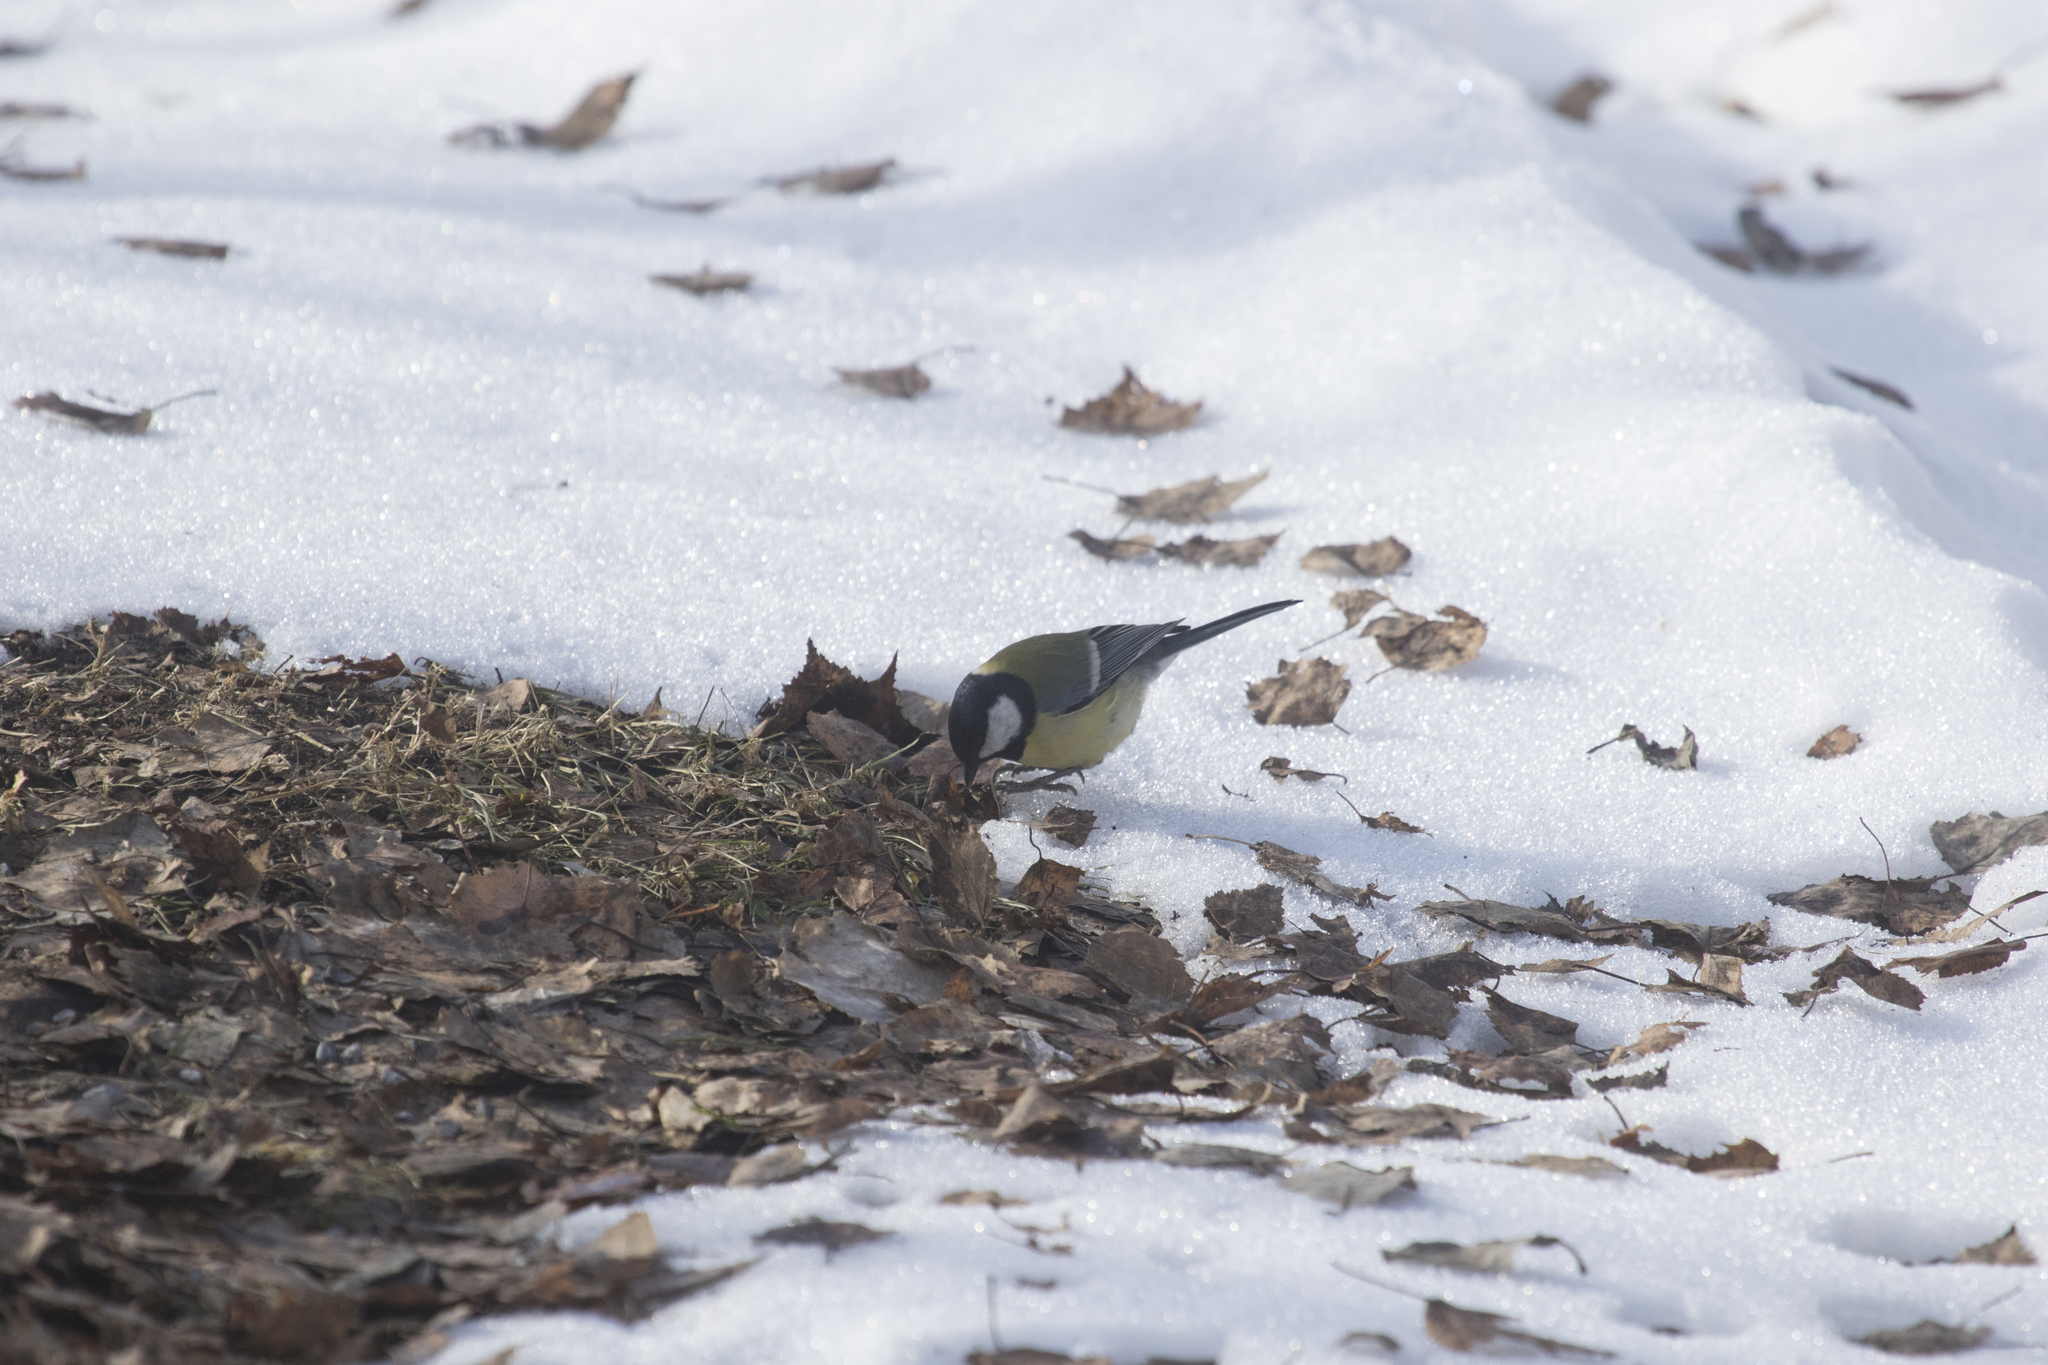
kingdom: Animalia
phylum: Chordata
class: Aves
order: Passeriformes
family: Paridae
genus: Parus
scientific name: Parus major
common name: Great tit
